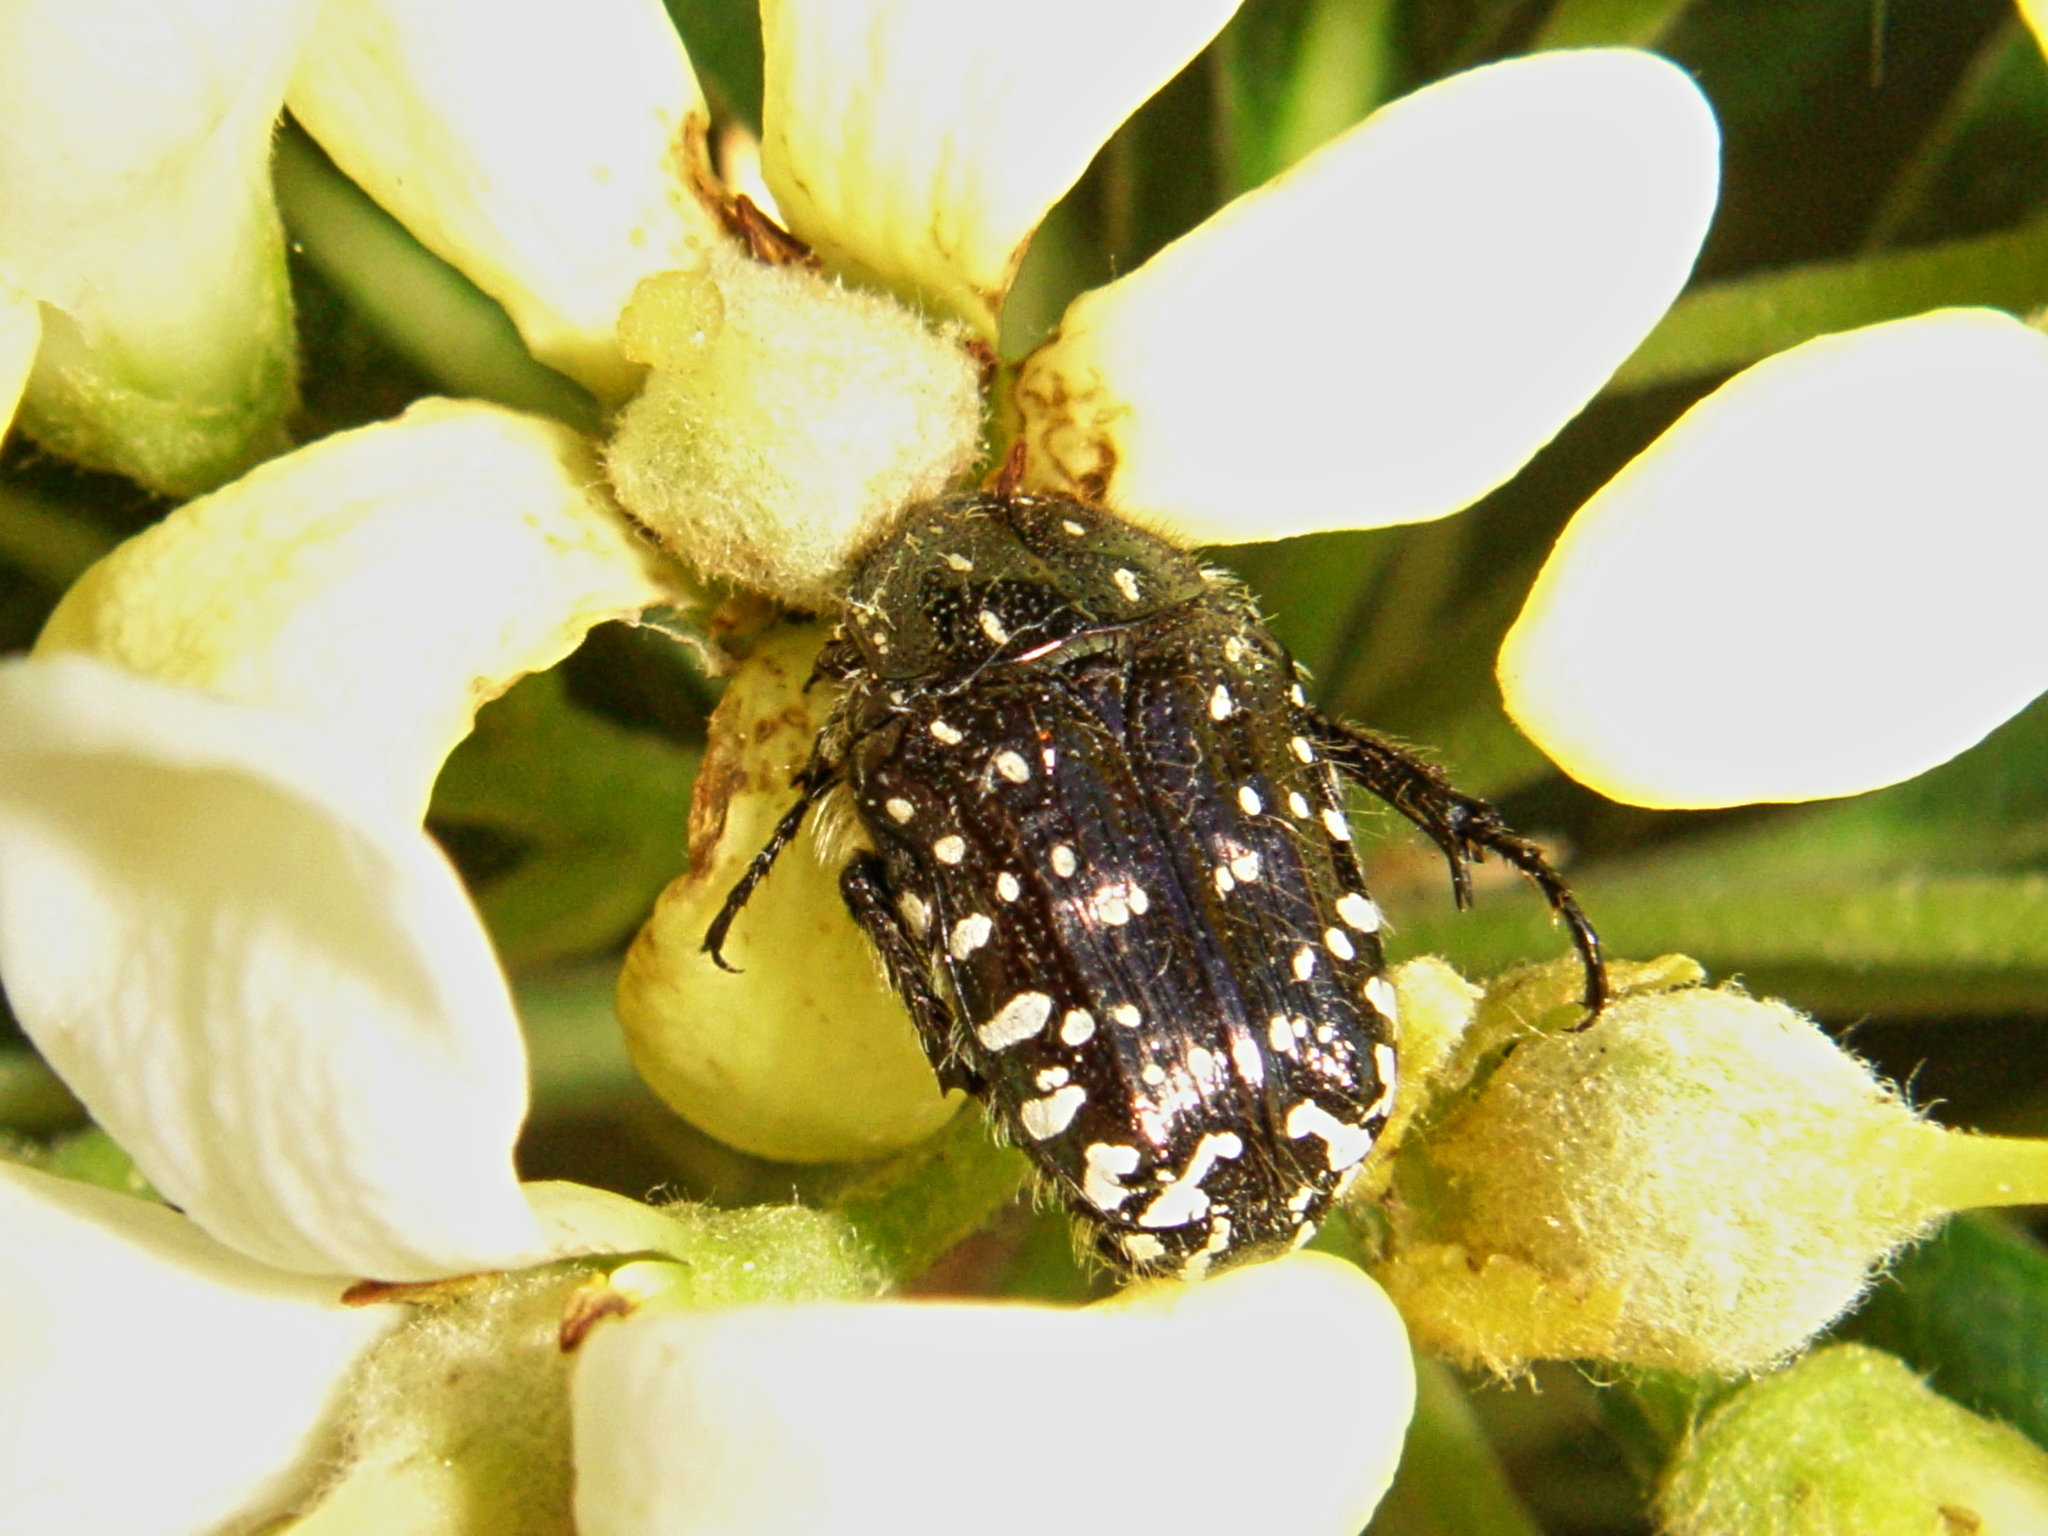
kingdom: Animalia
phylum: Arthropoda
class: Insecta
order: Coleoptera
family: Scarabaeidae
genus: Oxythyrea
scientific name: Oxythyrea funesta
